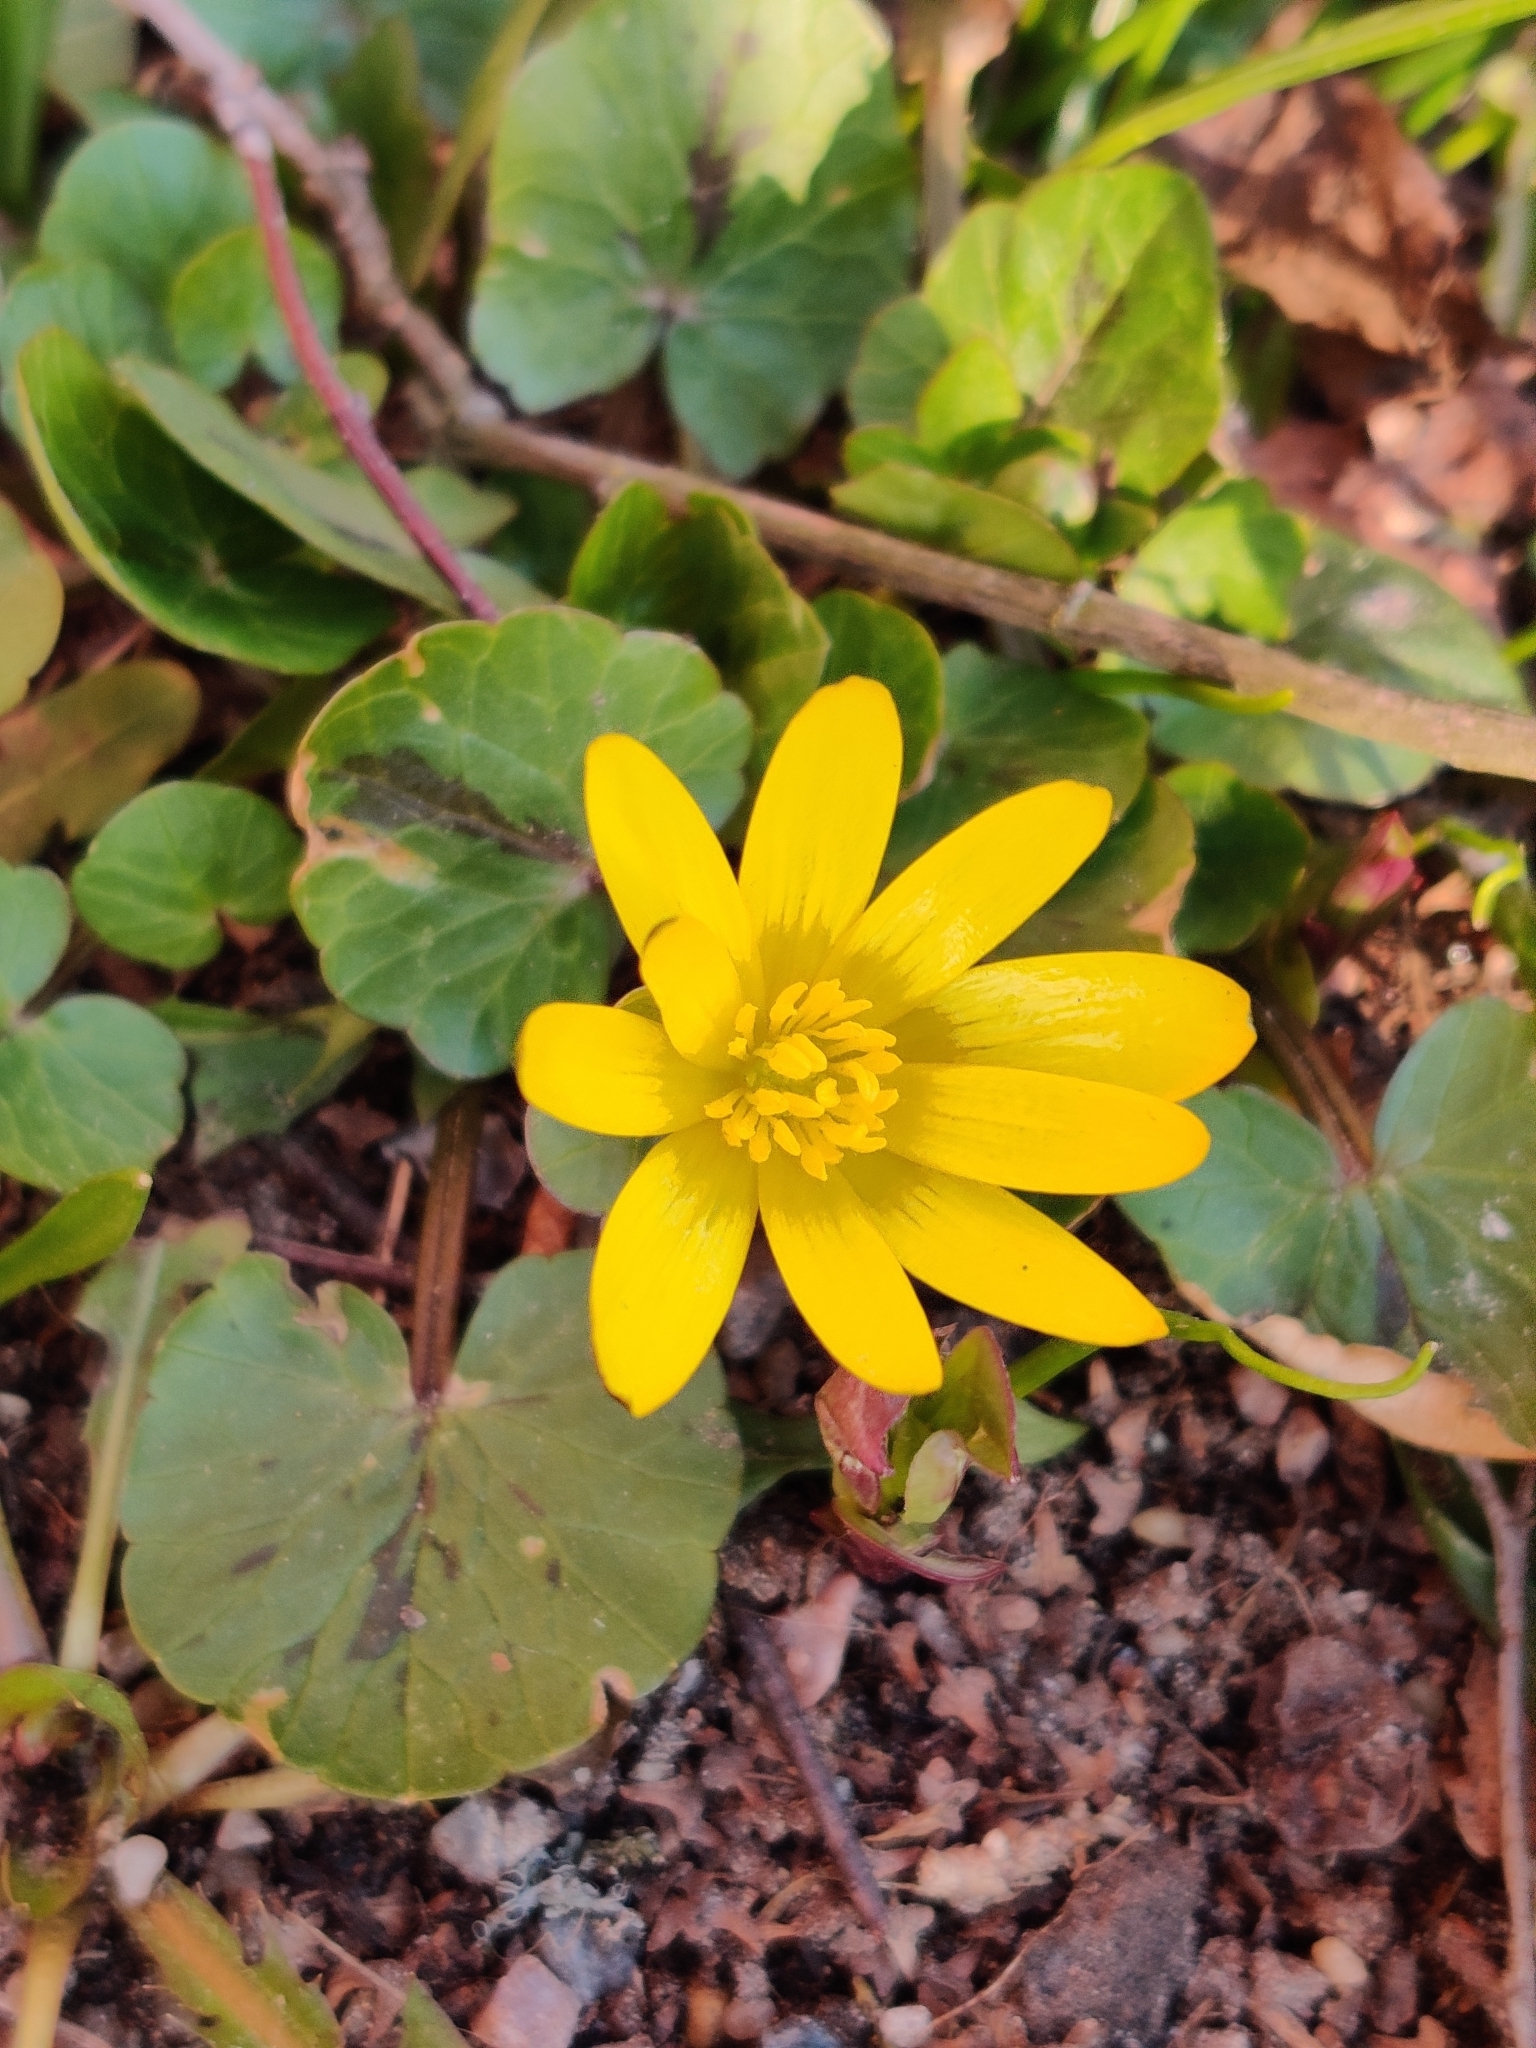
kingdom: Plantae
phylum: Tracheophyta
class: Magnoliopsida
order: Ranunculales
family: Ranunculaceae
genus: Ficaria
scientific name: Ficaria verna
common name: Lesser celandine
